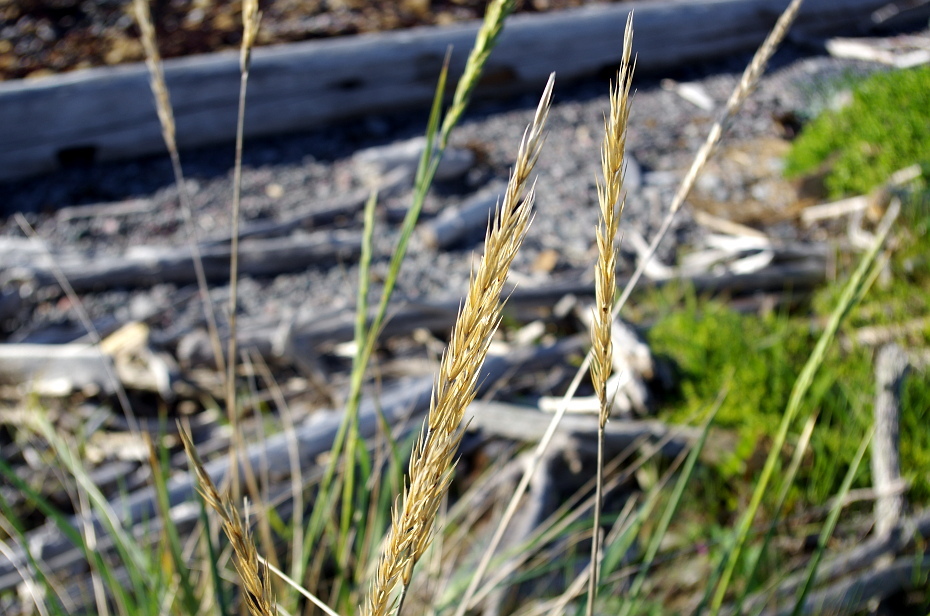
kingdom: Plantae
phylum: Tracheophyta
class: Liliopsida
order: Poales
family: Poaceae
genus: Leymus
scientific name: Leymus arenarius
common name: Lyme-grass
